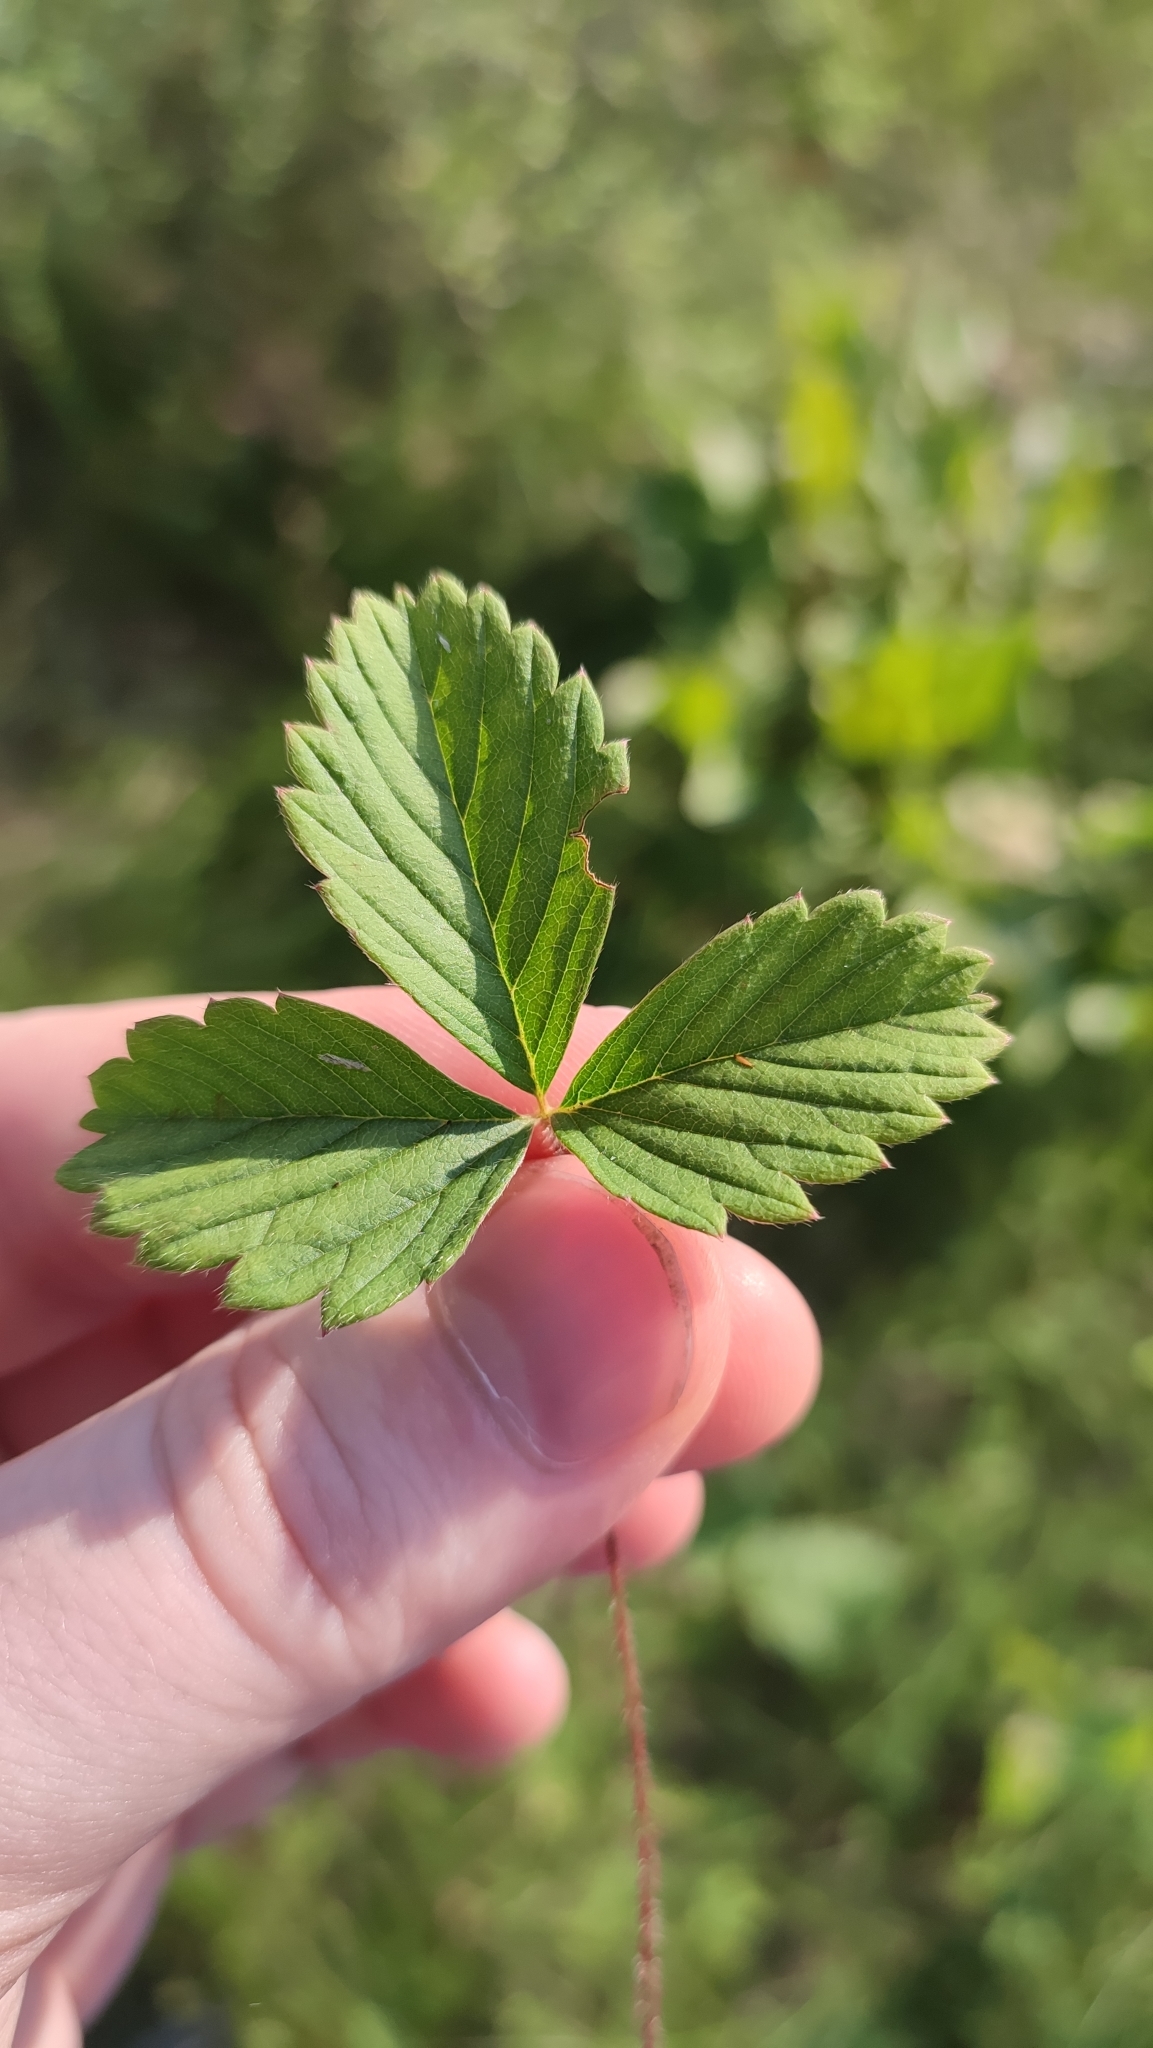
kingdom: Plantae
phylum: Tracheophyta
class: Magnoliopsida
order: Rosales
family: Rosaceae
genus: Fragaria
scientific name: Fragaria viridis
